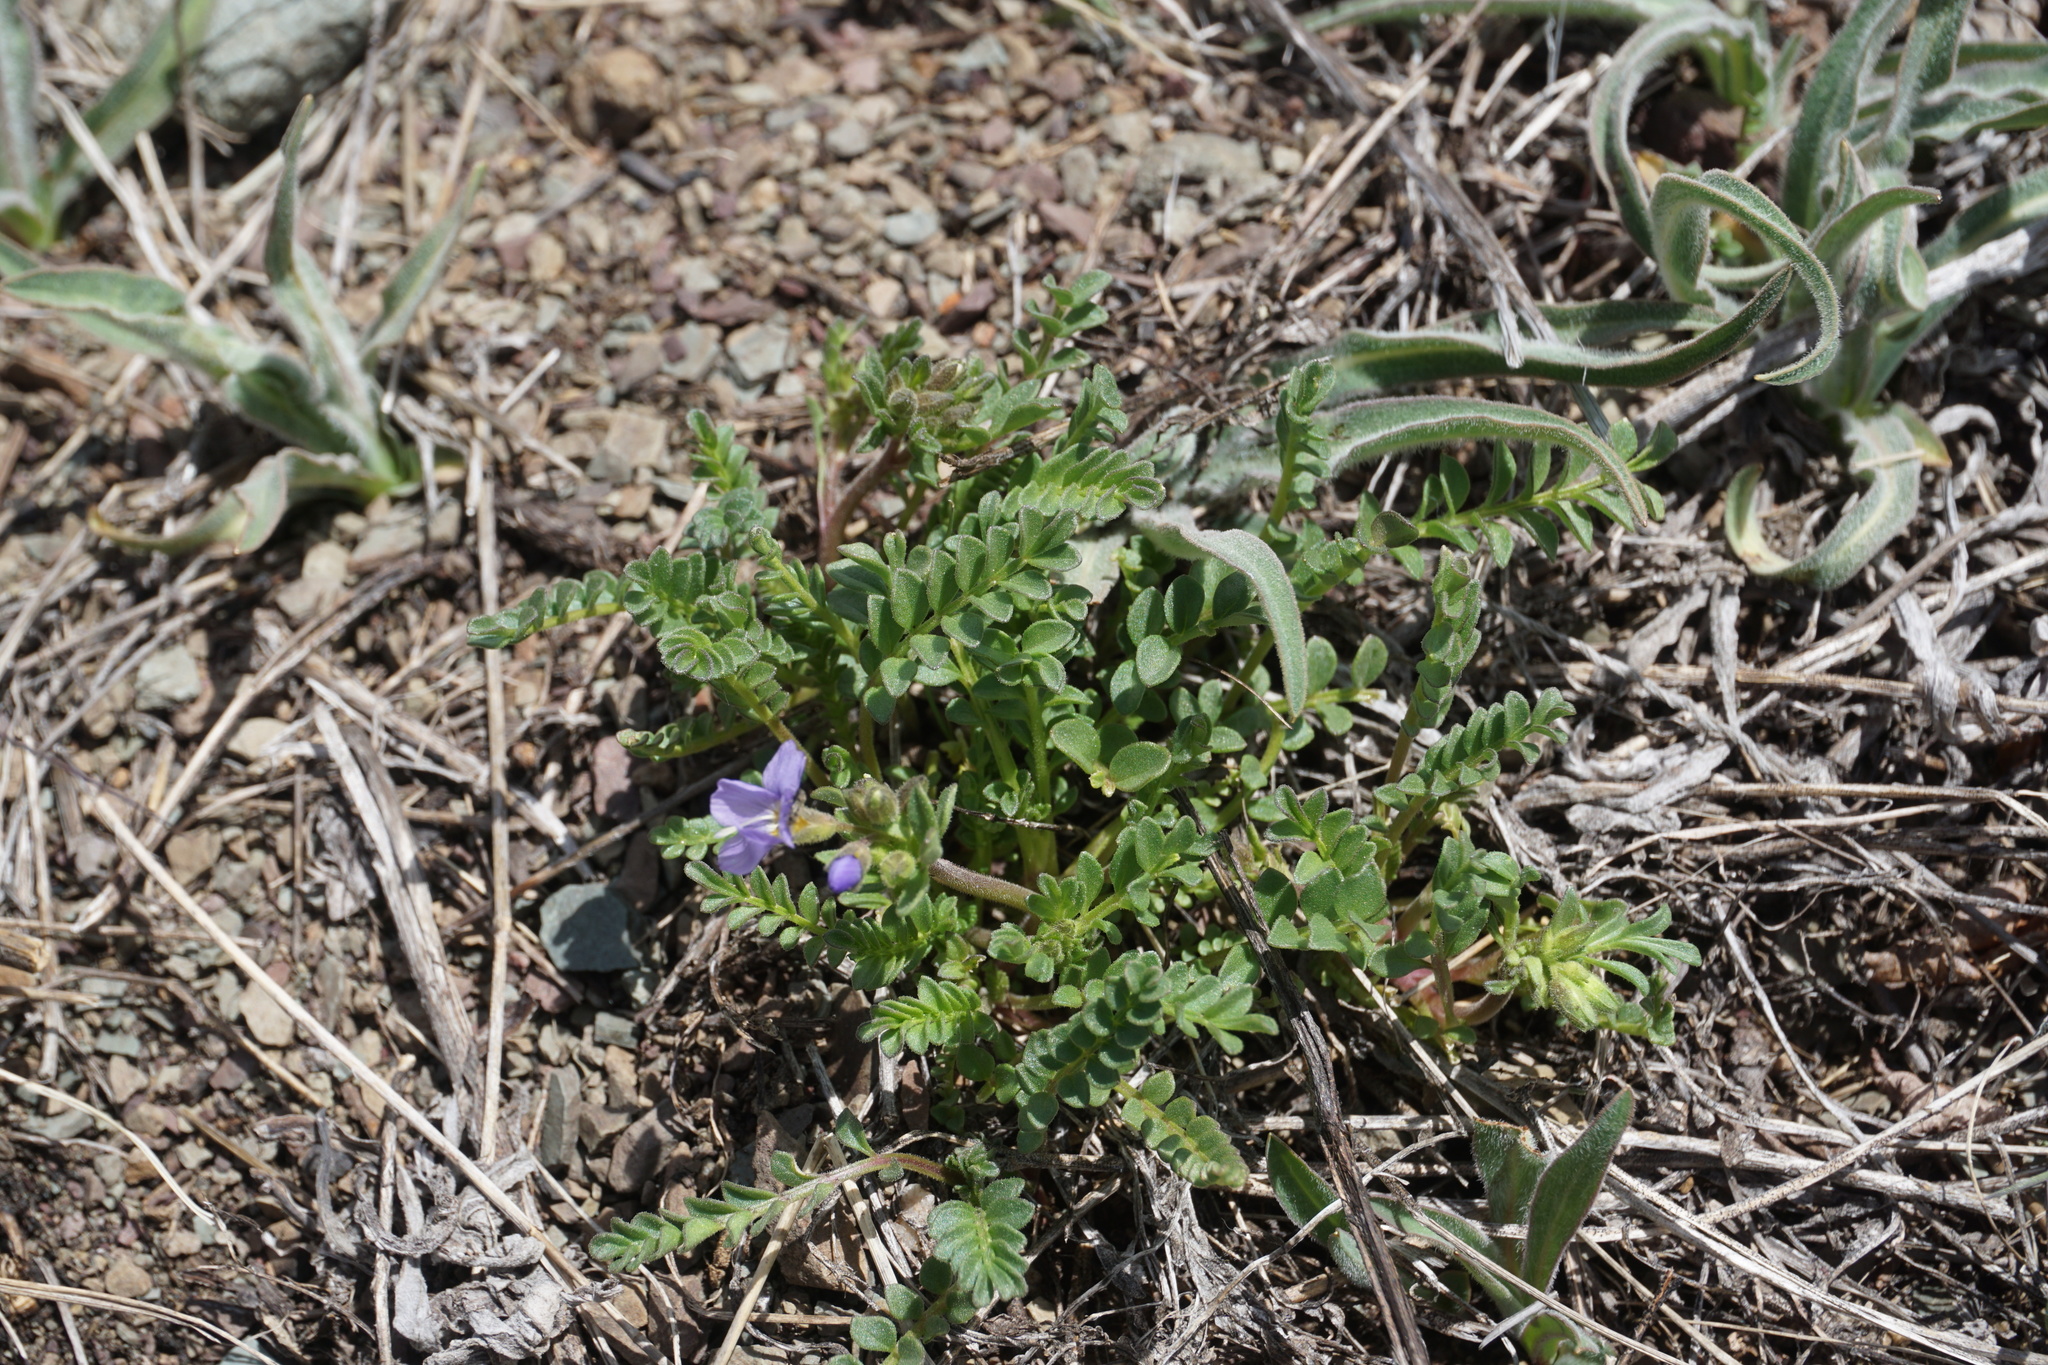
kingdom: Plantae
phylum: Tracheophyta
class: Magnoliopsida
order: Ericales
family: Polemoniaceae
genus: Polemonium
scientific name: Polemonium pulcherrimum
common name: Short jacob's-ladder
